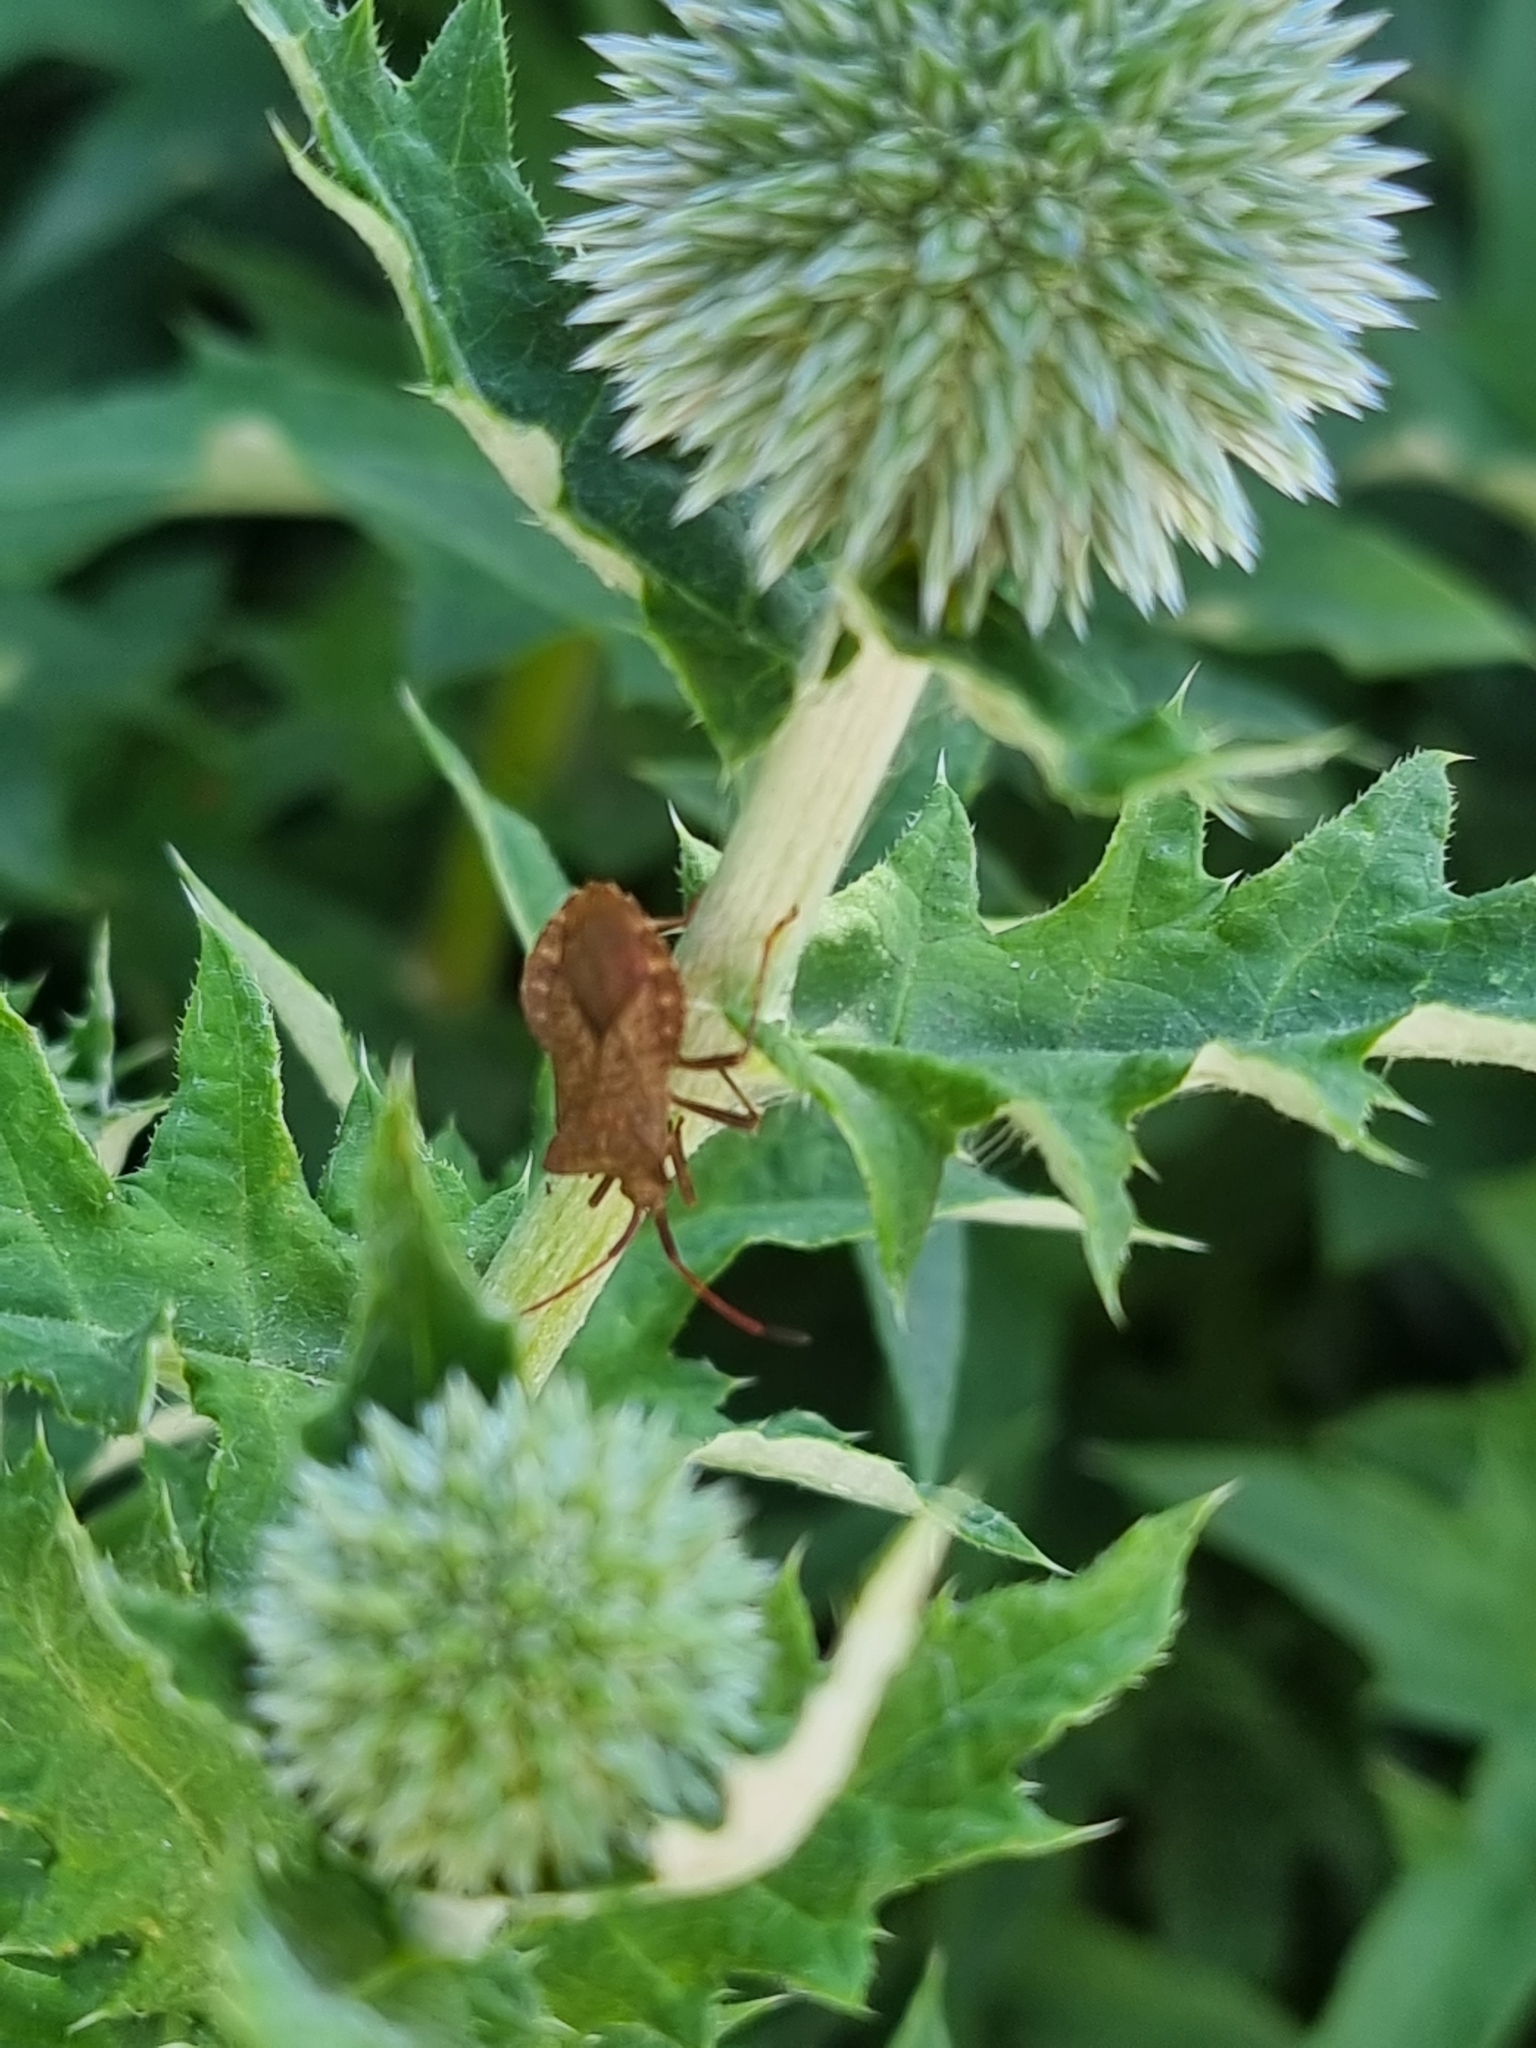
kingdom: Animalia
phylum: Arthropoda
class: Insecta
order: Hemiptera
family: Coreidae
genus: Coreus
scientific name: Coreus marginatus
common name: Dock bug
